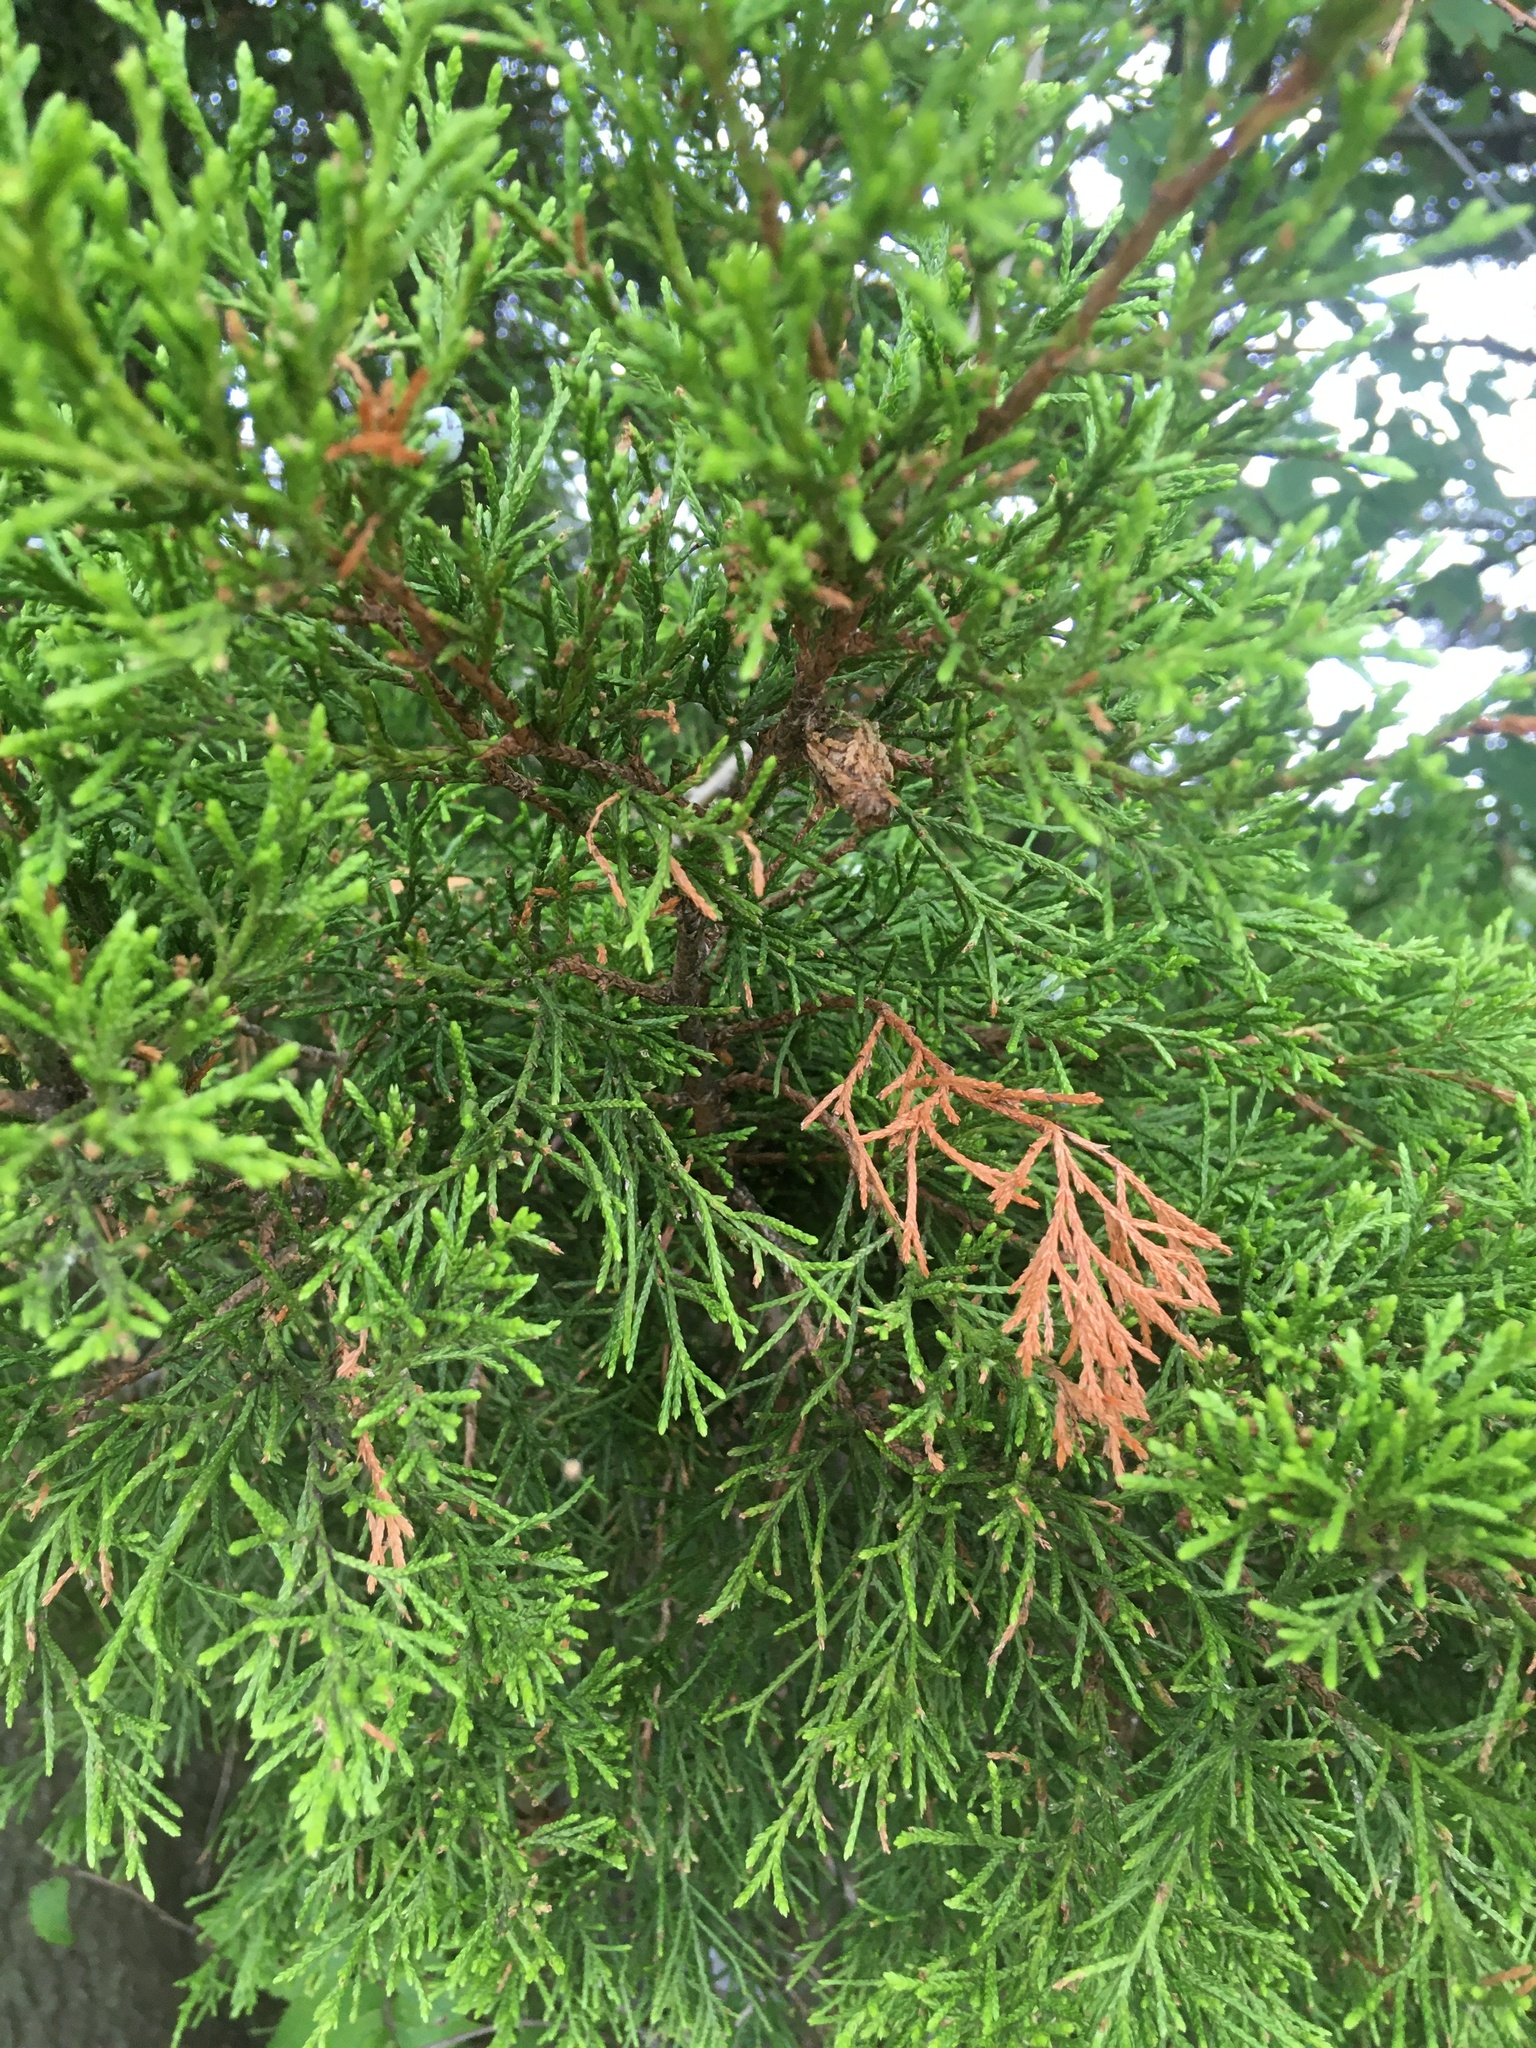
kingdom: Plantae
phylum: Tracheophyta
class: Pinopsida
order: Pinales
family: Cupressaceae
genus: Juniperus
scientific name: Juniperus virginiana
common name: Red juniper
